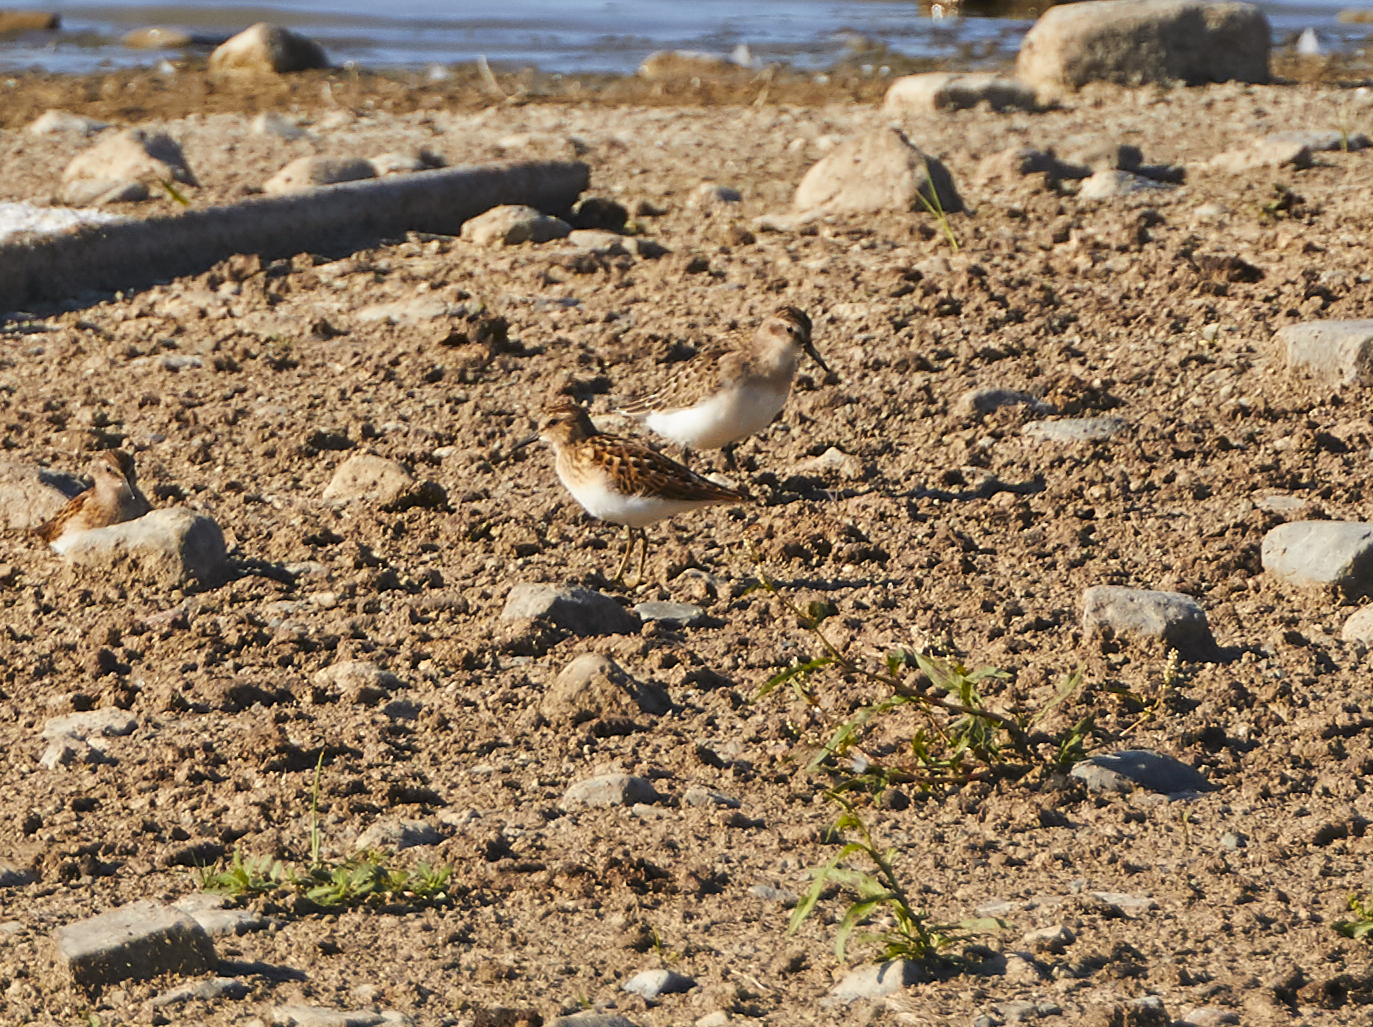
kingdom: Animalia
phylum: Chordata
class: Aves
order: Charadriiformes
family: Scolopacidae
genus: Calidris
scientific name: Calidris minutilla
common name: Least sandpiper
